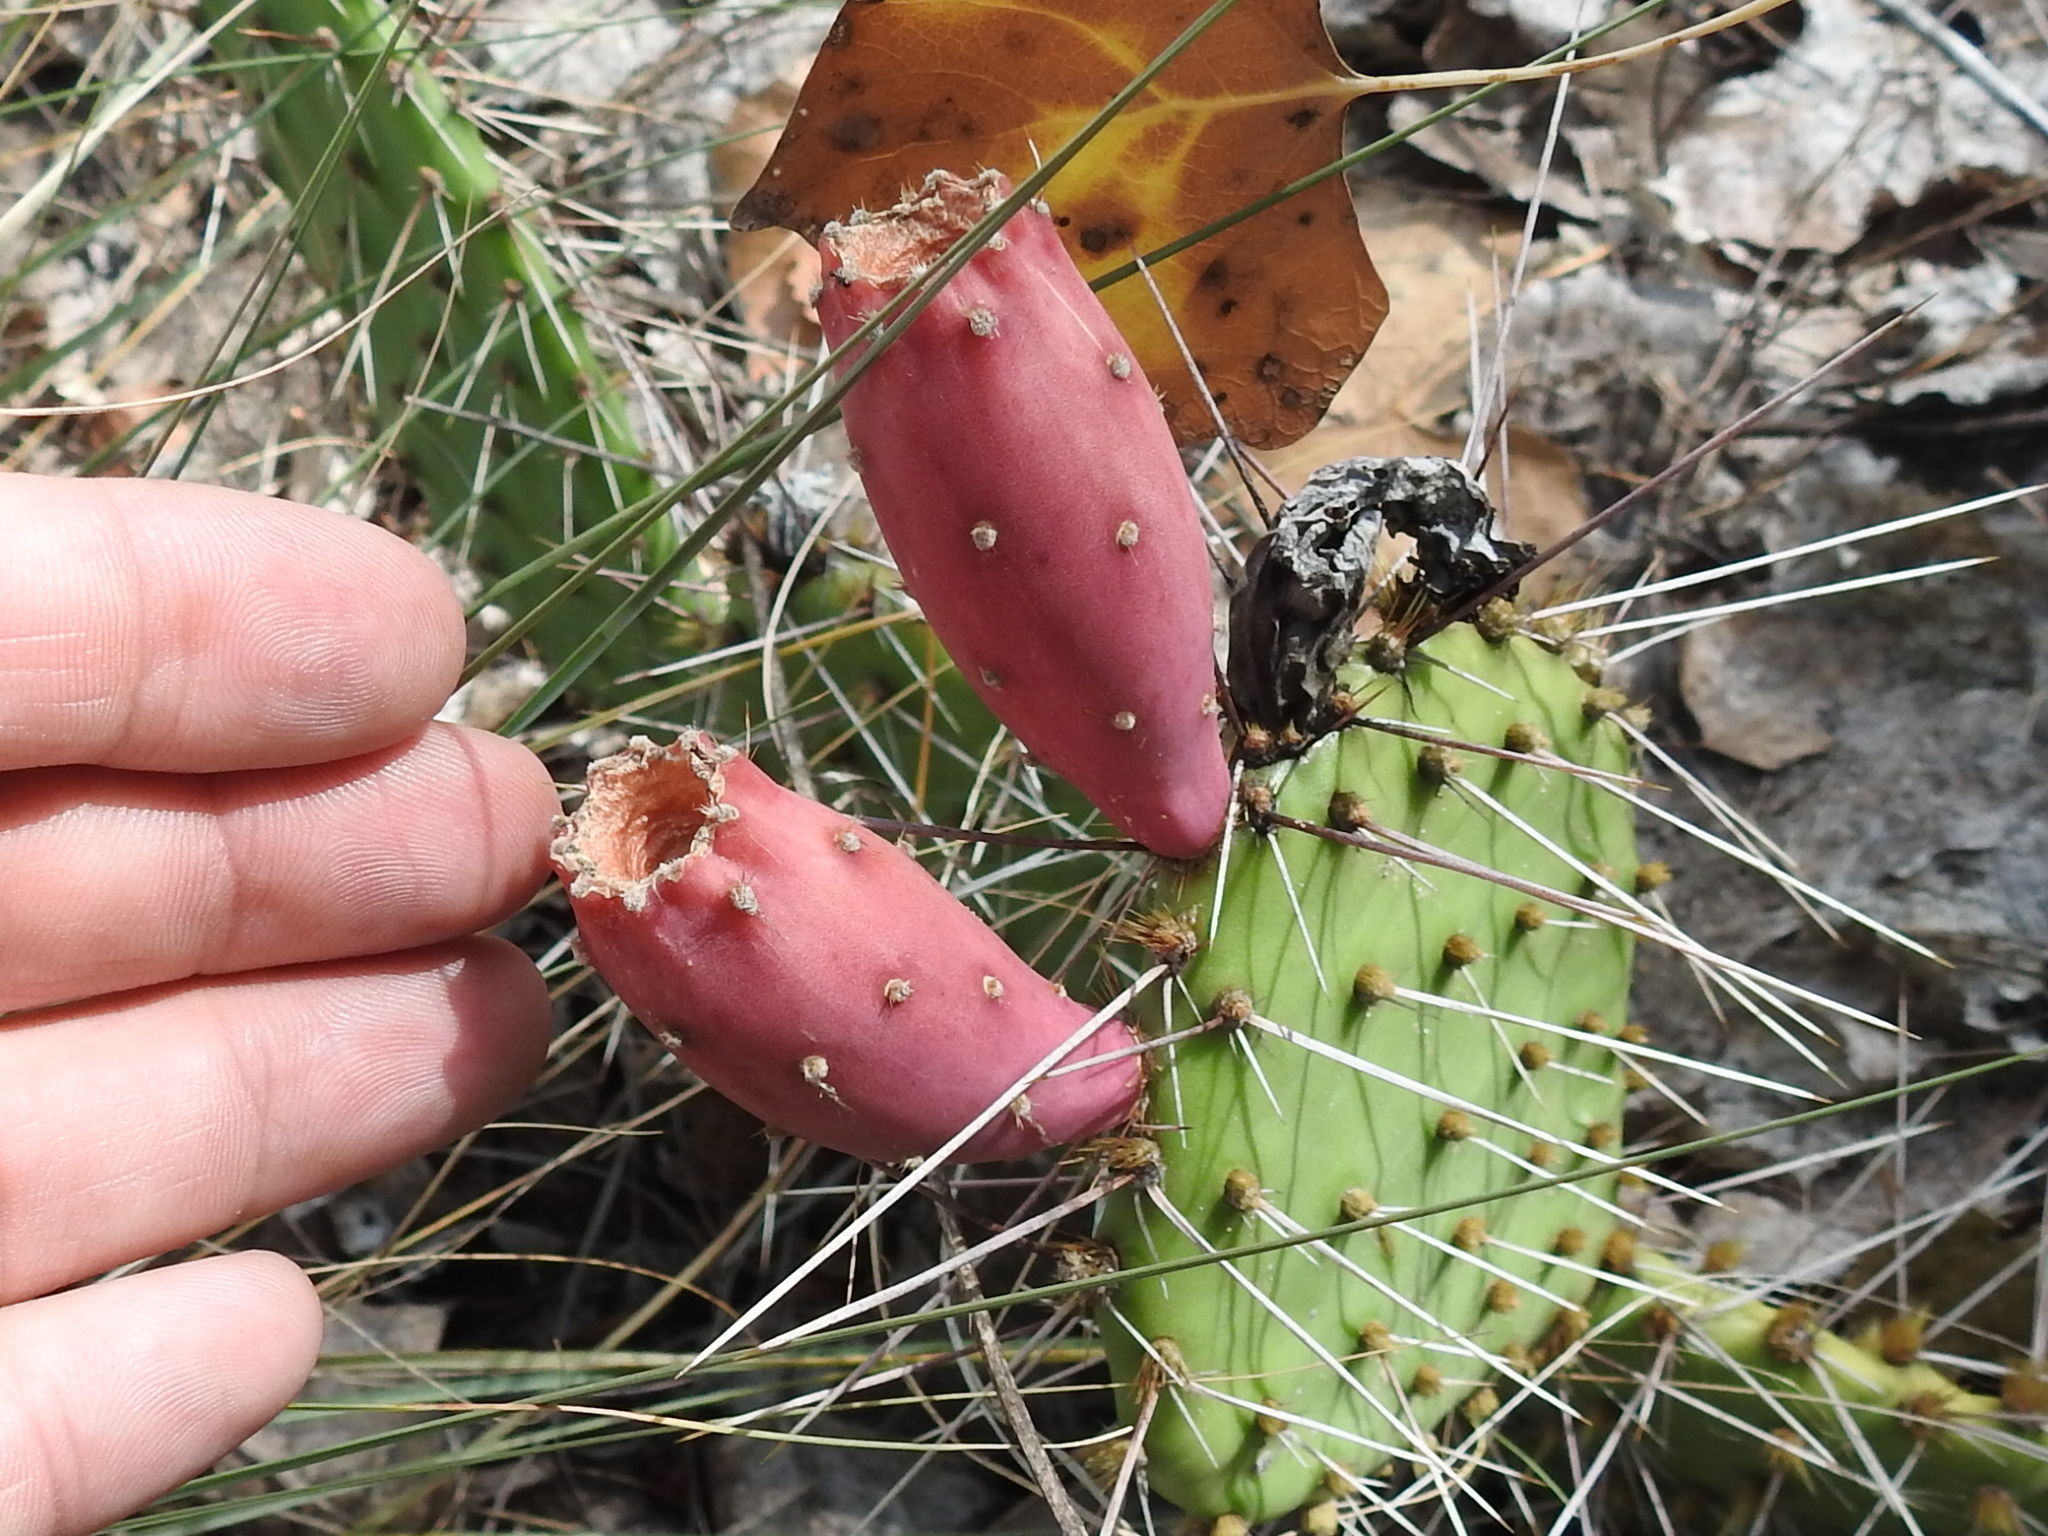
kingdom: Plantae
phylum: Tracheophyta
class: Magnoliopsida
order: Caryophyllales
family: Cactaceae
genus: Opuntia
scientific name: Opuntia macrorhiza
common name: Grassland pricklypear
